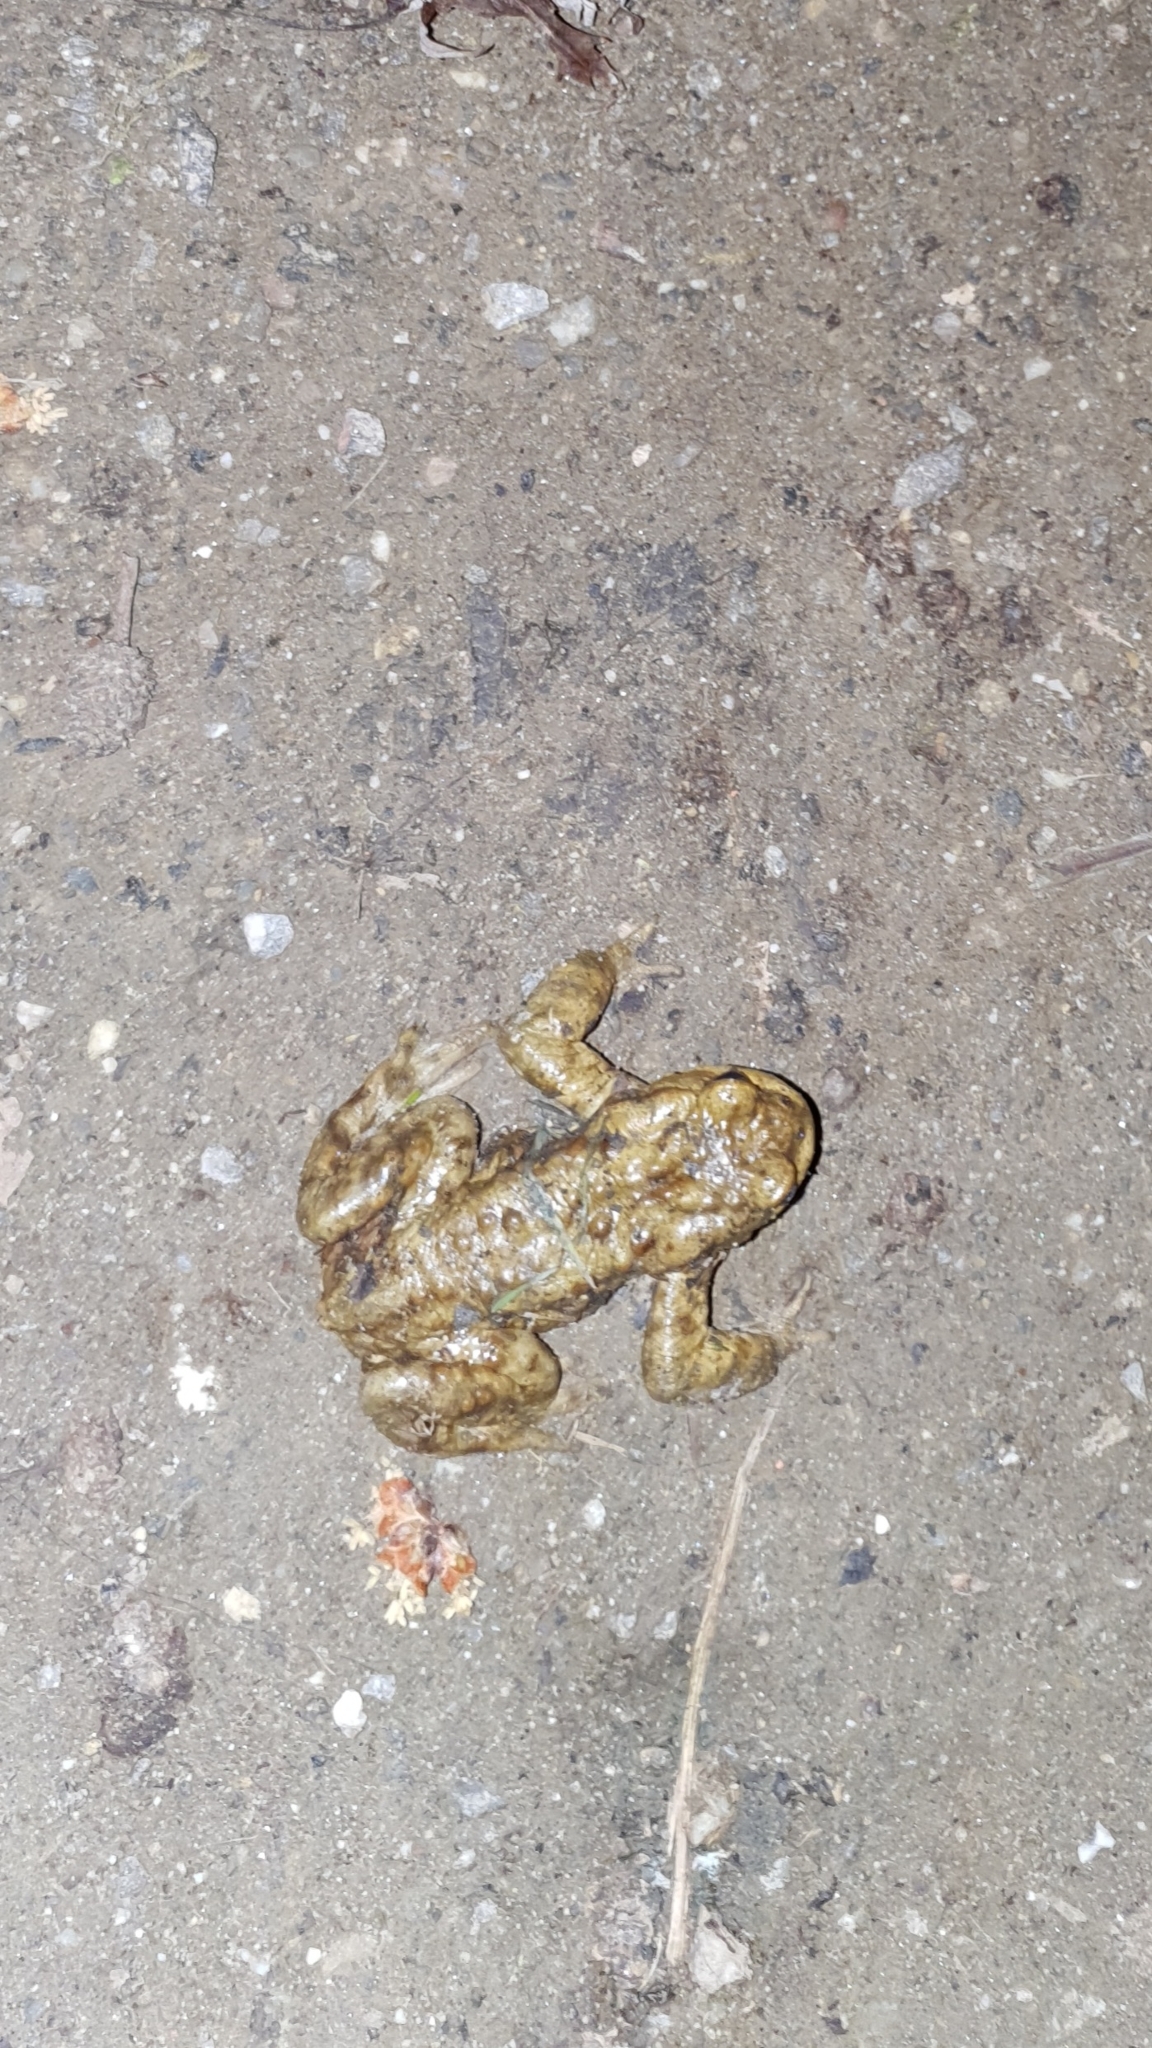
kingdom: Animalia
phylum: Chordata
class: Amphibia
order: Anura
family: Bufonidae
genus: Bufo
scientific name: Bufo bufo
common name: Common toad
